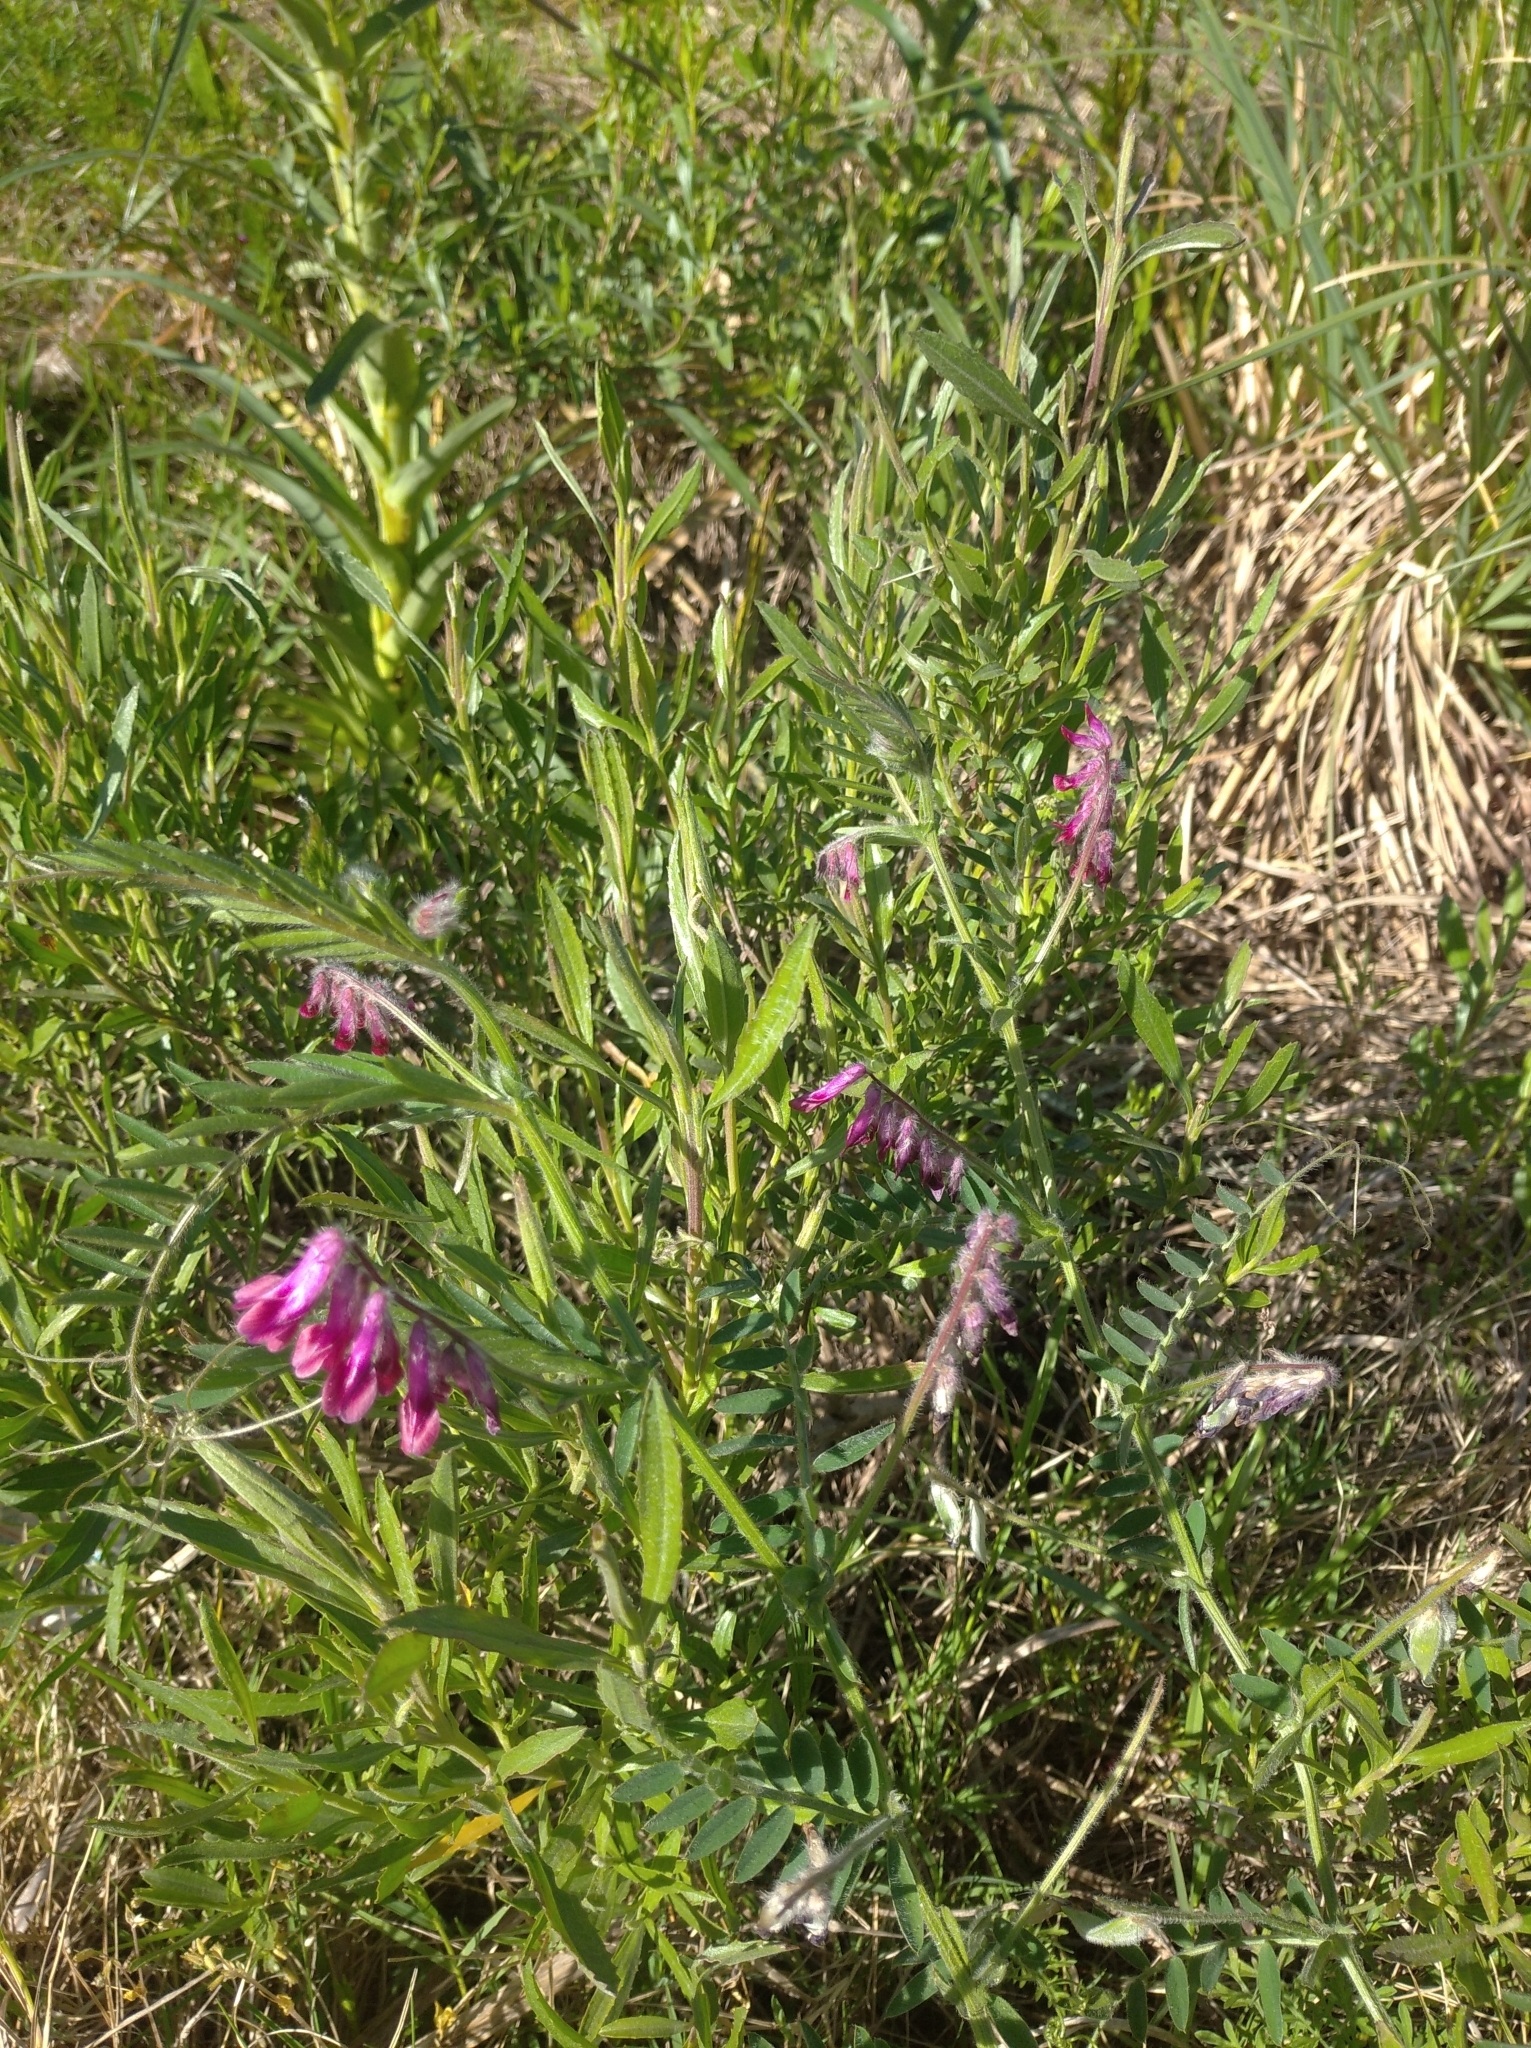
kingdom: Plantae
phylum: Tracheophyta
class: Magnoliopsida
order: Fabales
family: Fabaceae
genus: Vicia
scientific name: Vicia benghalensis
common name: Purple vetch
